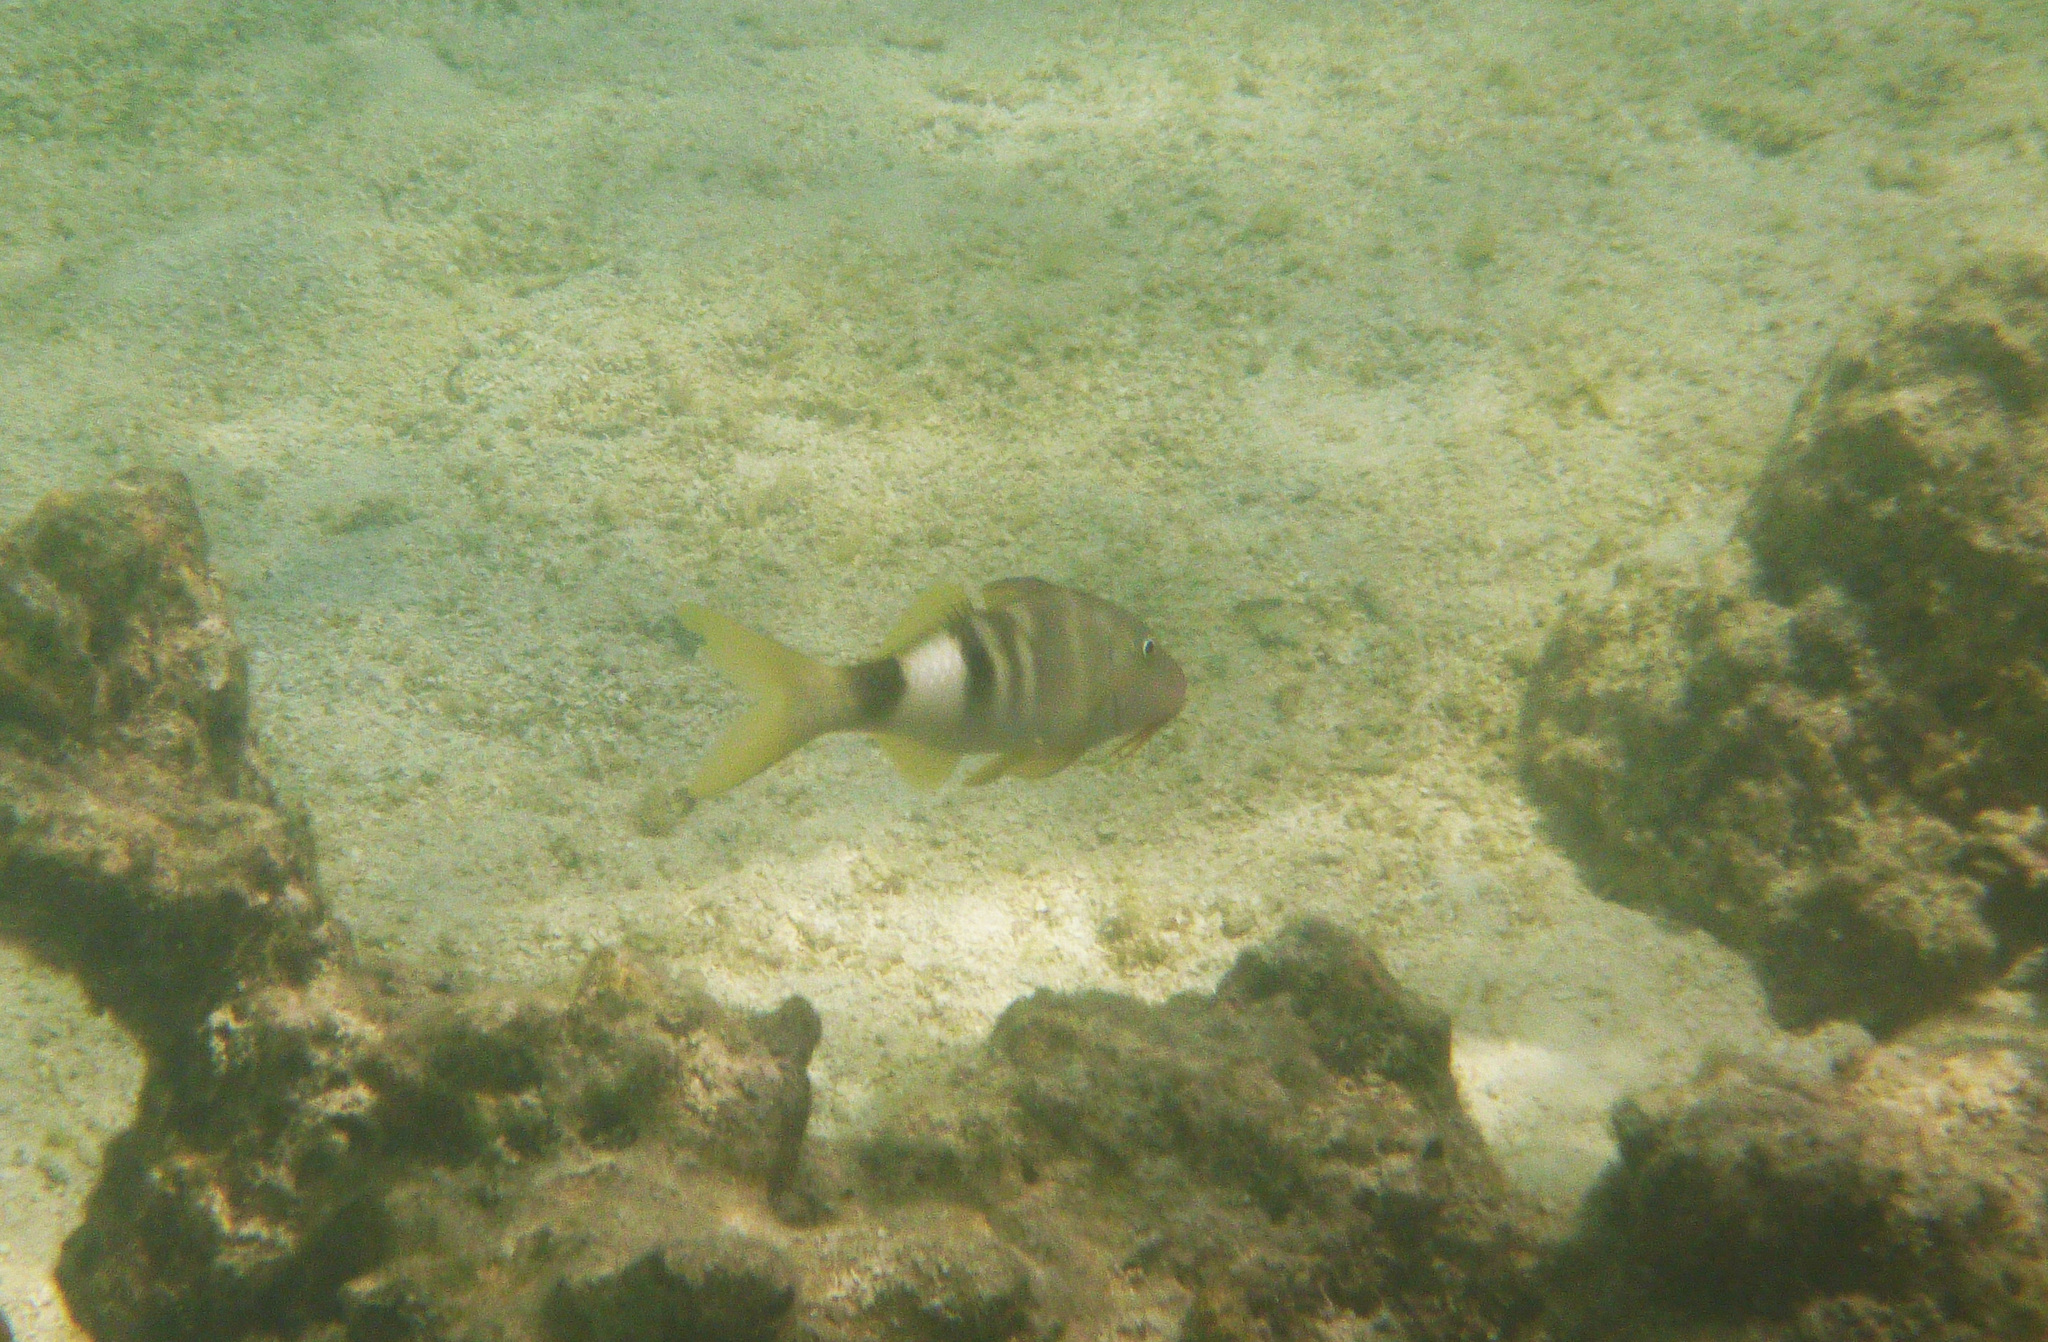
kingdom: Animalia
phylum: Chordata
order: Perciformes
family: Mullidae
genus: Parupeneus
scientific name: Parupeneus multifasciatus
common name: Manybar goatfish
